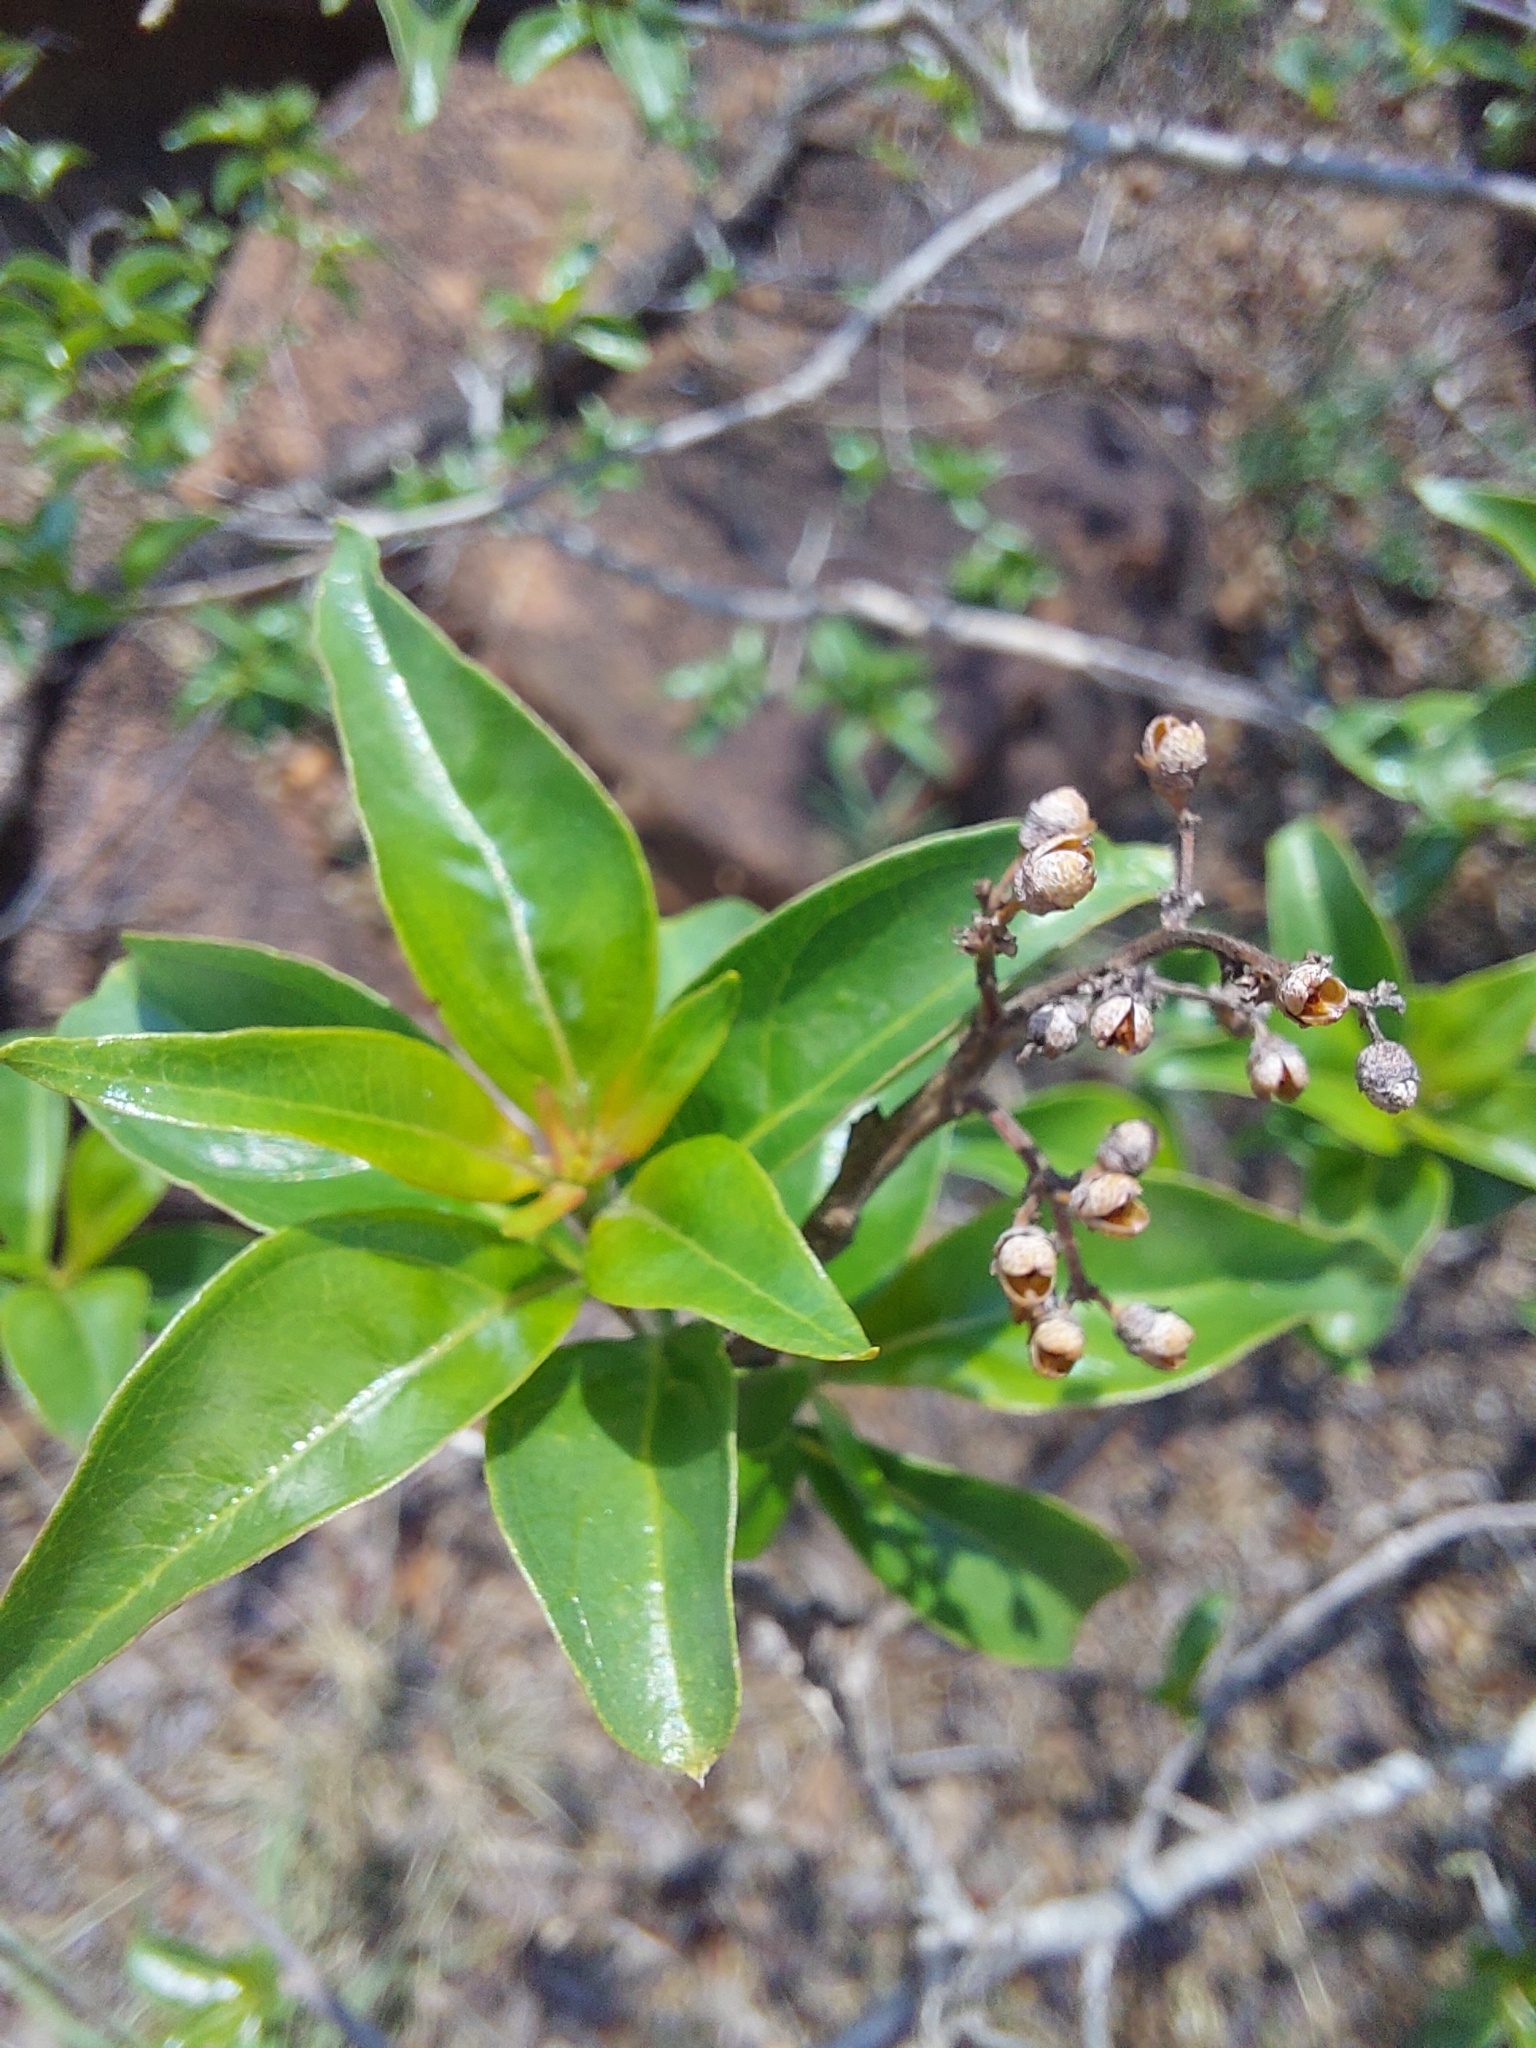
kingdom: Plantae
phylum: Tracheophyta
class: Magnoliopsida
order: Myrtales
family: Myrtaceae
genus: Heteropyxis
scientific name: Heteropyxis natalensis
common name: Lavender tree
